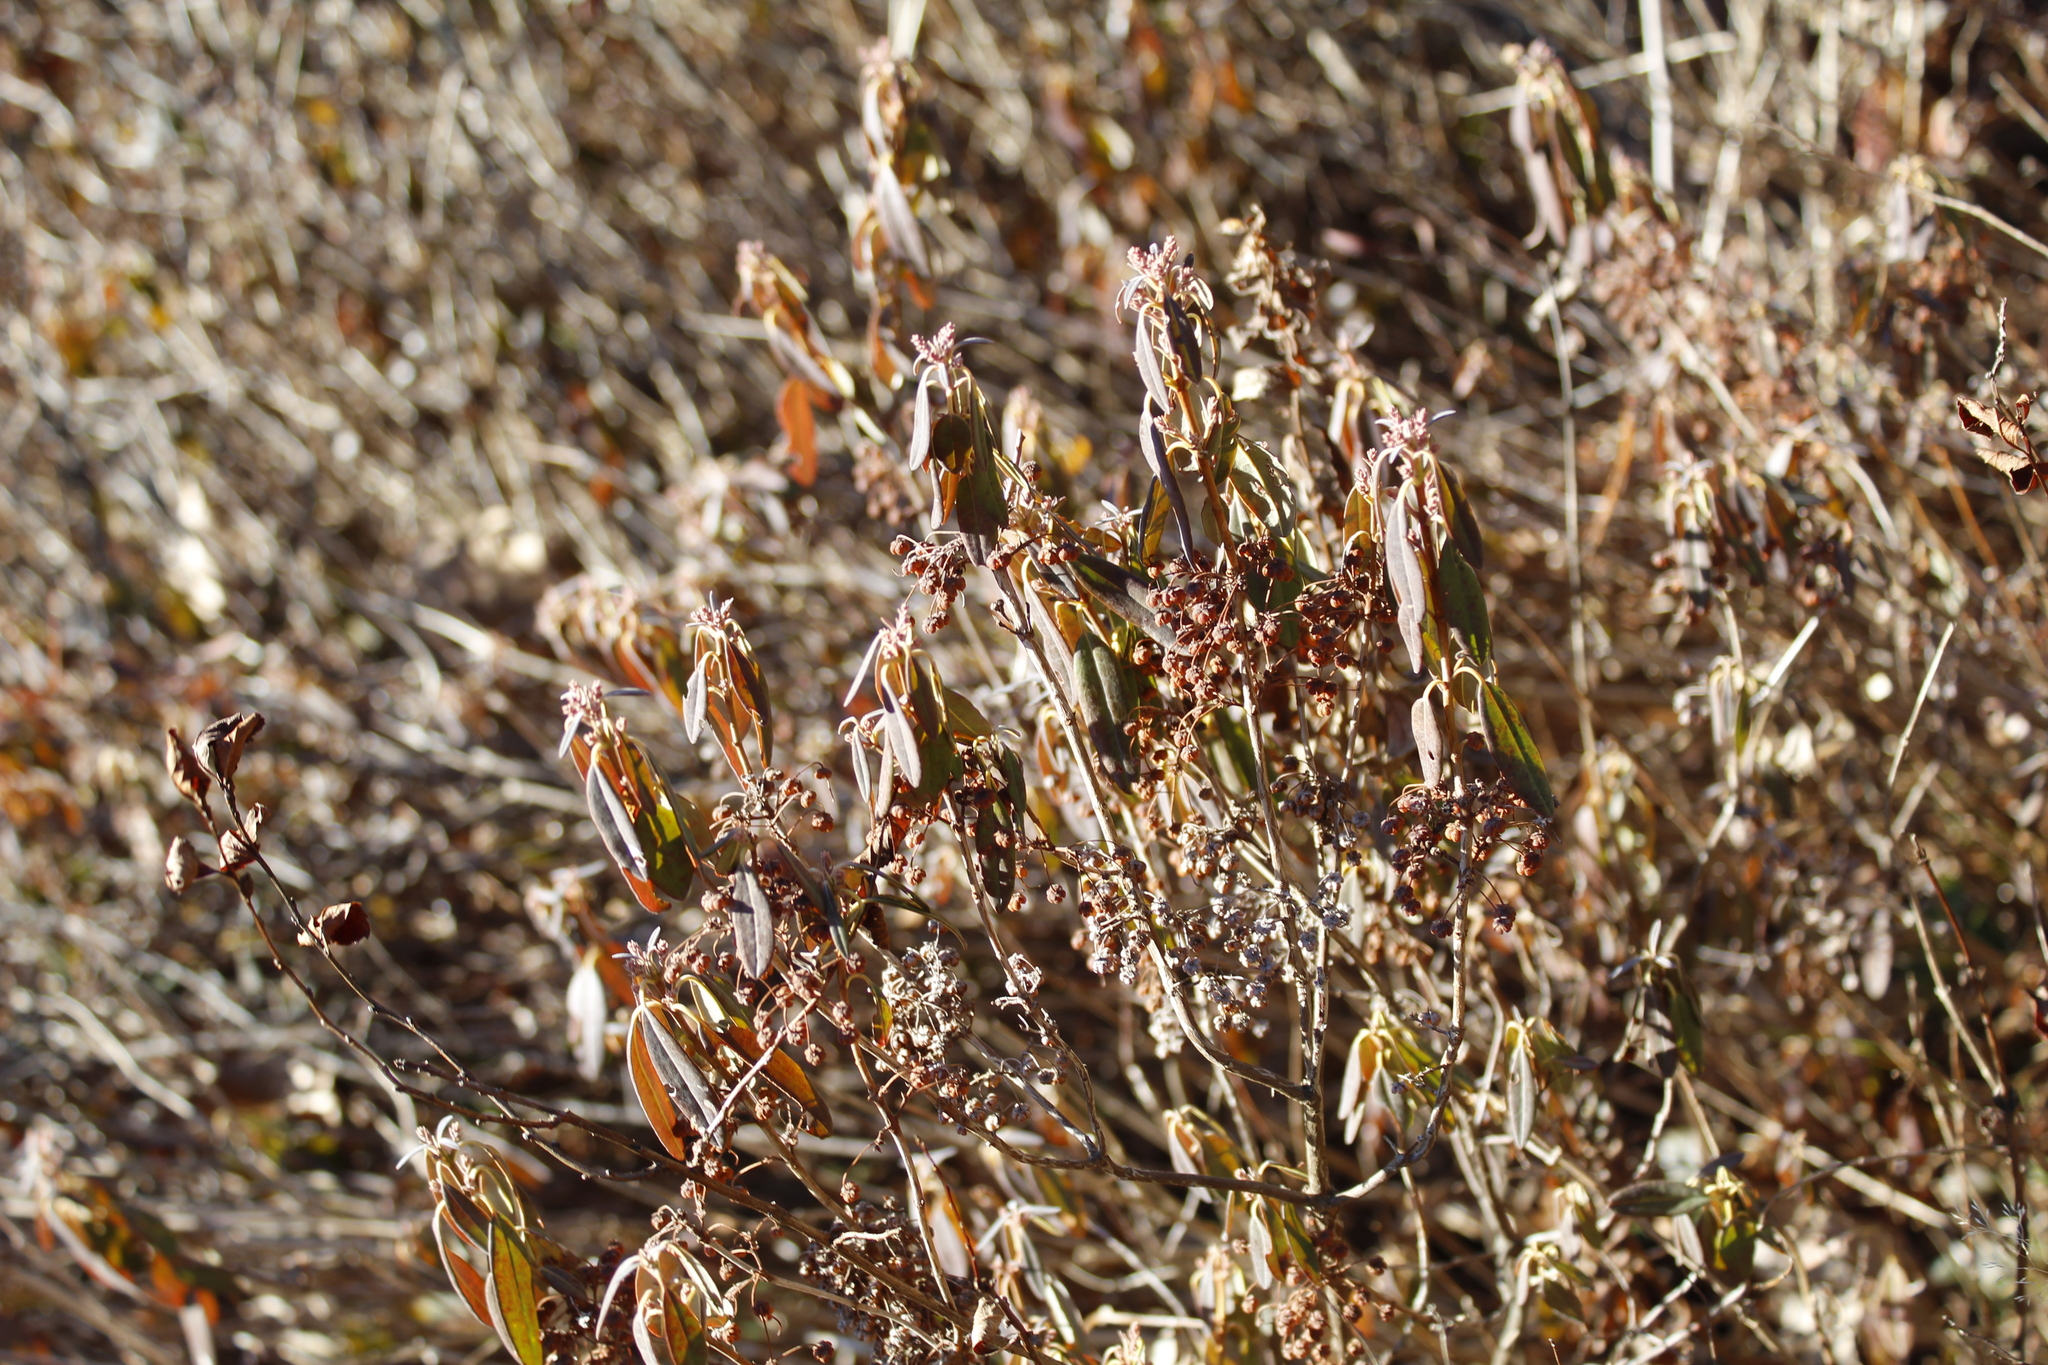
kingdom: Plantae
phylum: Tracheophyta
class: Magnoliopsida
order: Ericales
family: Ericaceae
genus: Kalmia
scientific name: Kalmia angustifolia
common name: Sheep-laurel
